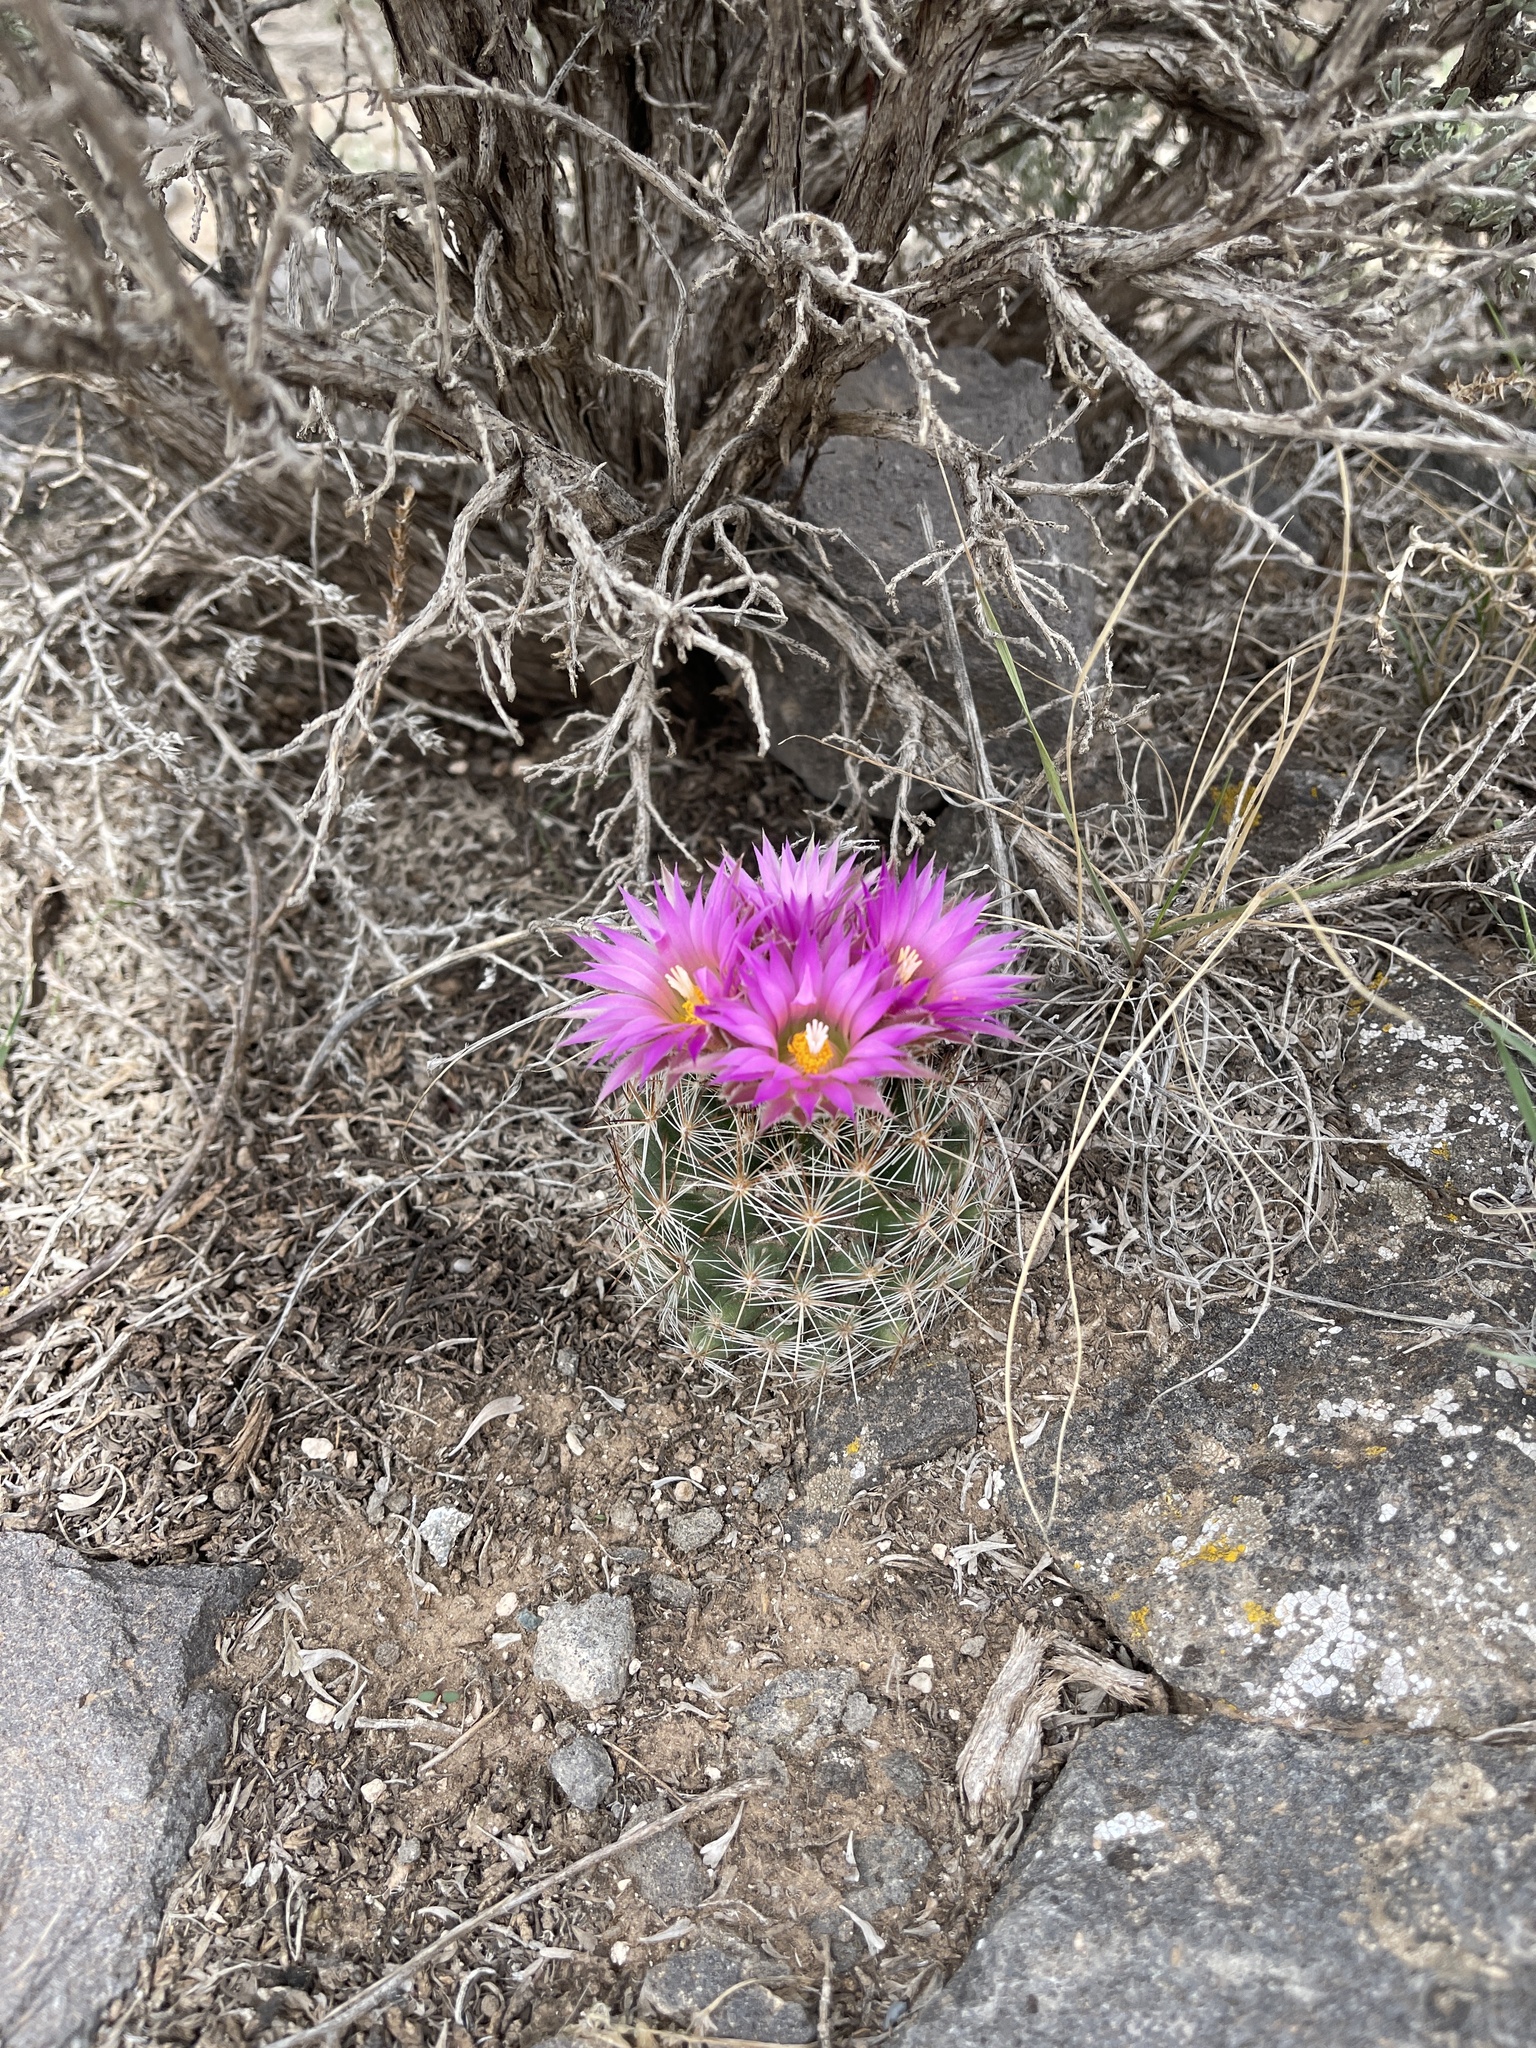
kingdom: Plantae
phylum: Tracheophyta
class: Magnoliopsida
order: Caryophyllales
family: Cactaceae
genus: Pelecyphora
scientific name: Pelecyphora vivipara
